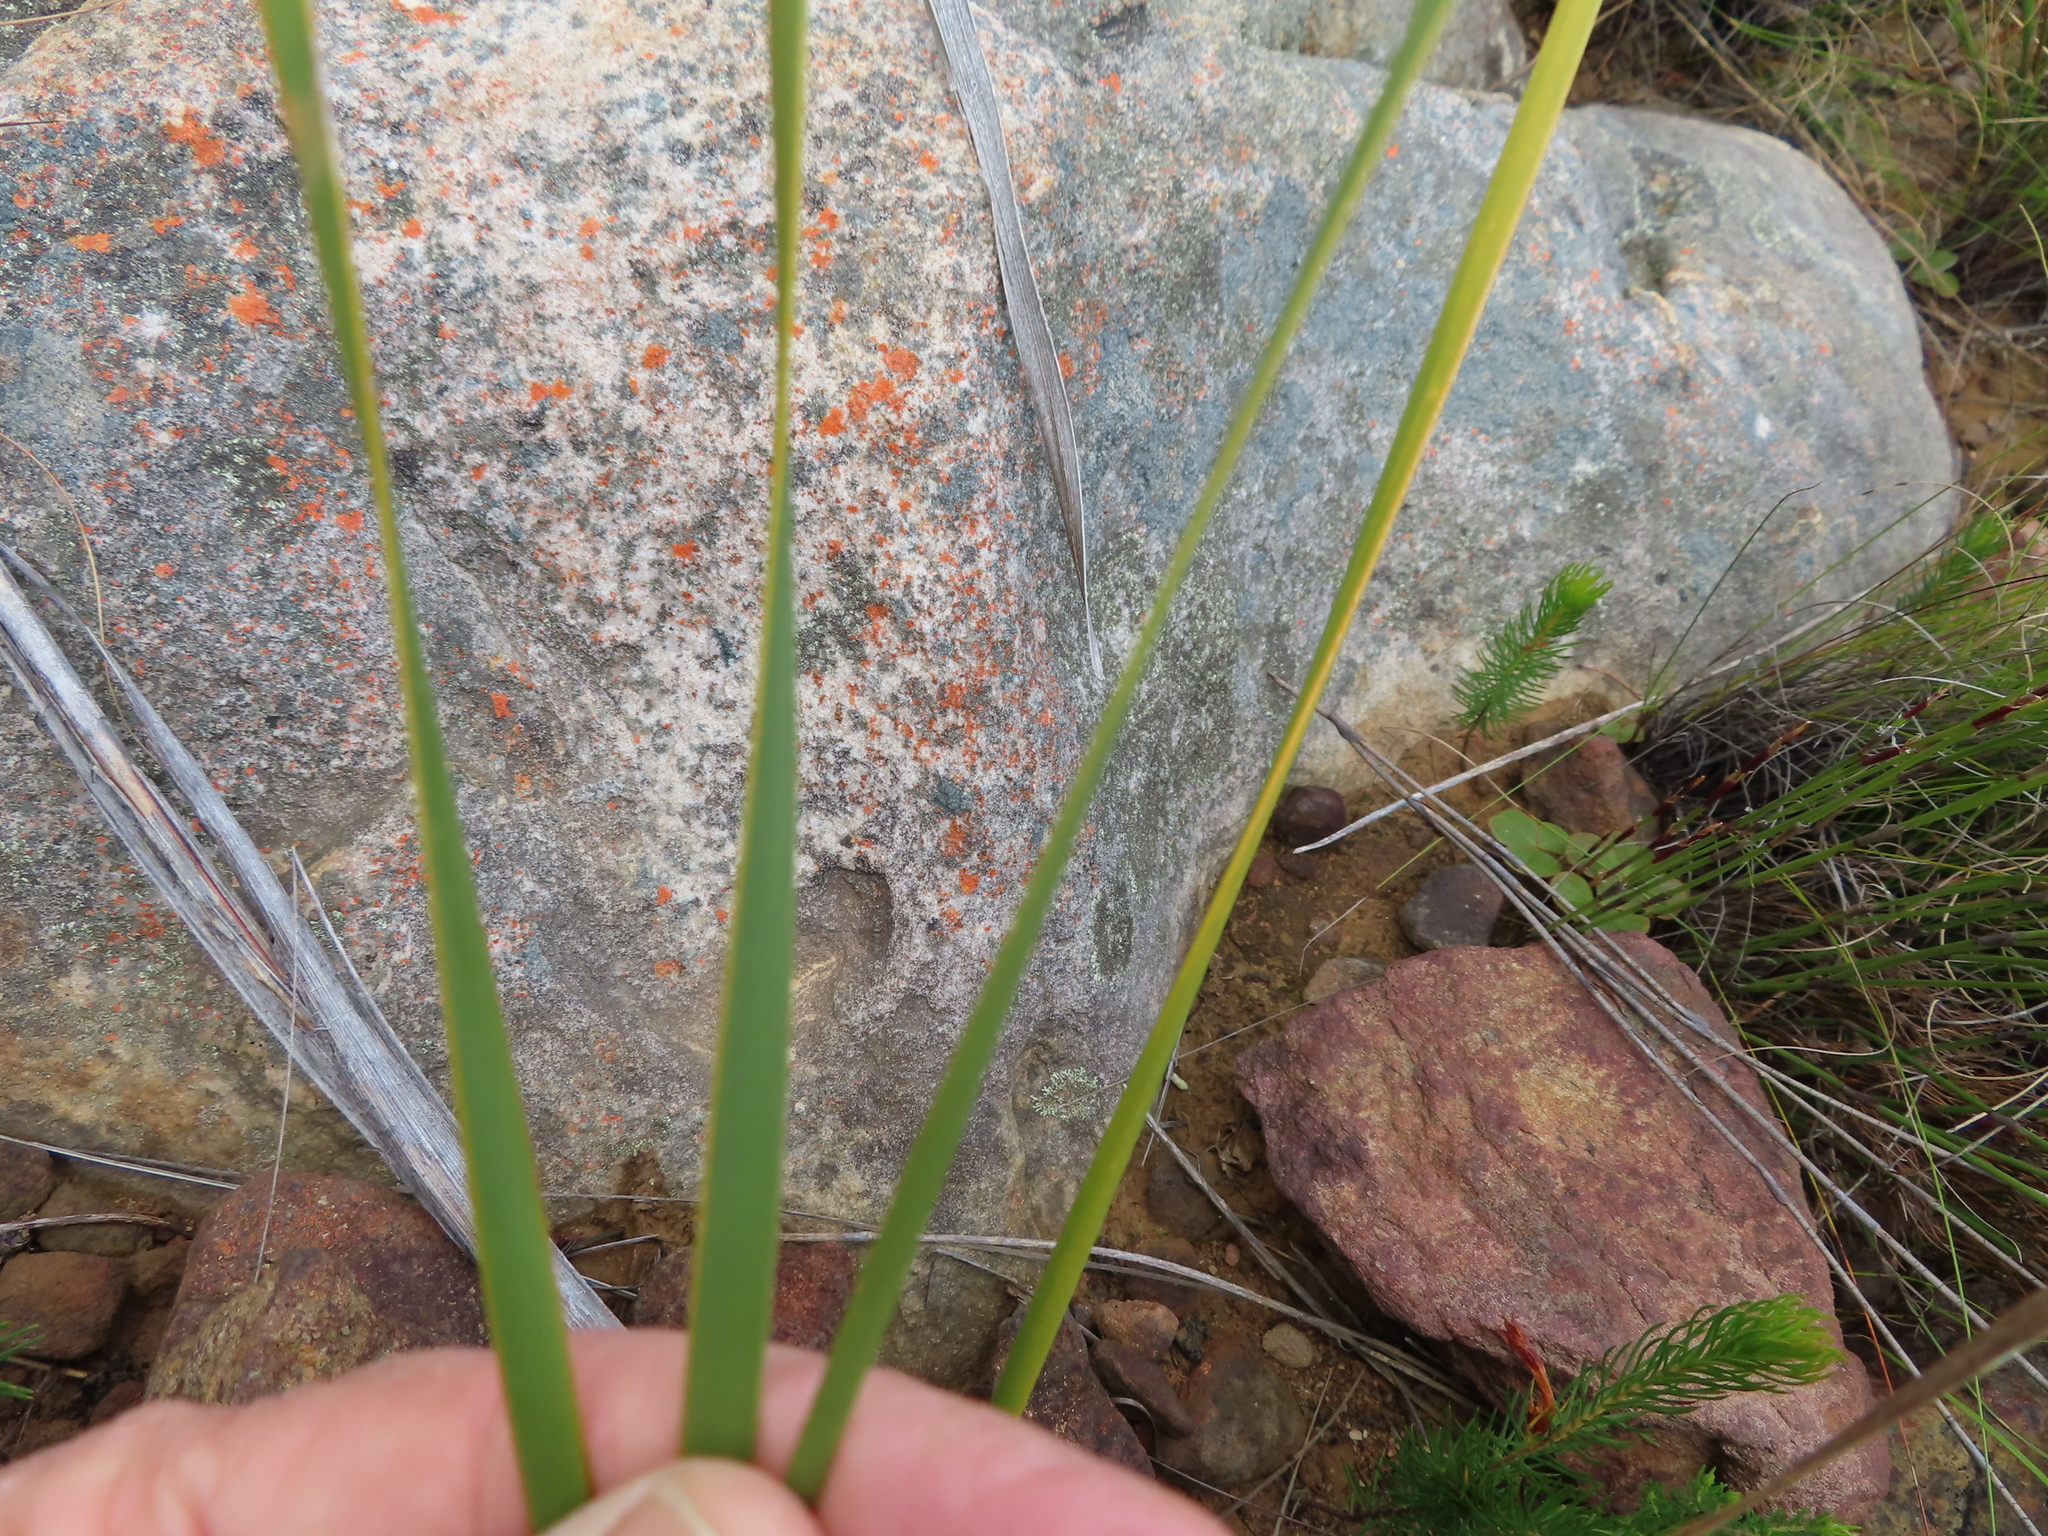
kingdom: Plantae
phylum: Tracheophyta
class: Liliopsida
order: Asparagales
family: Iridaceae
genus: Bobartia
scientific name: Bobartia gladiata
